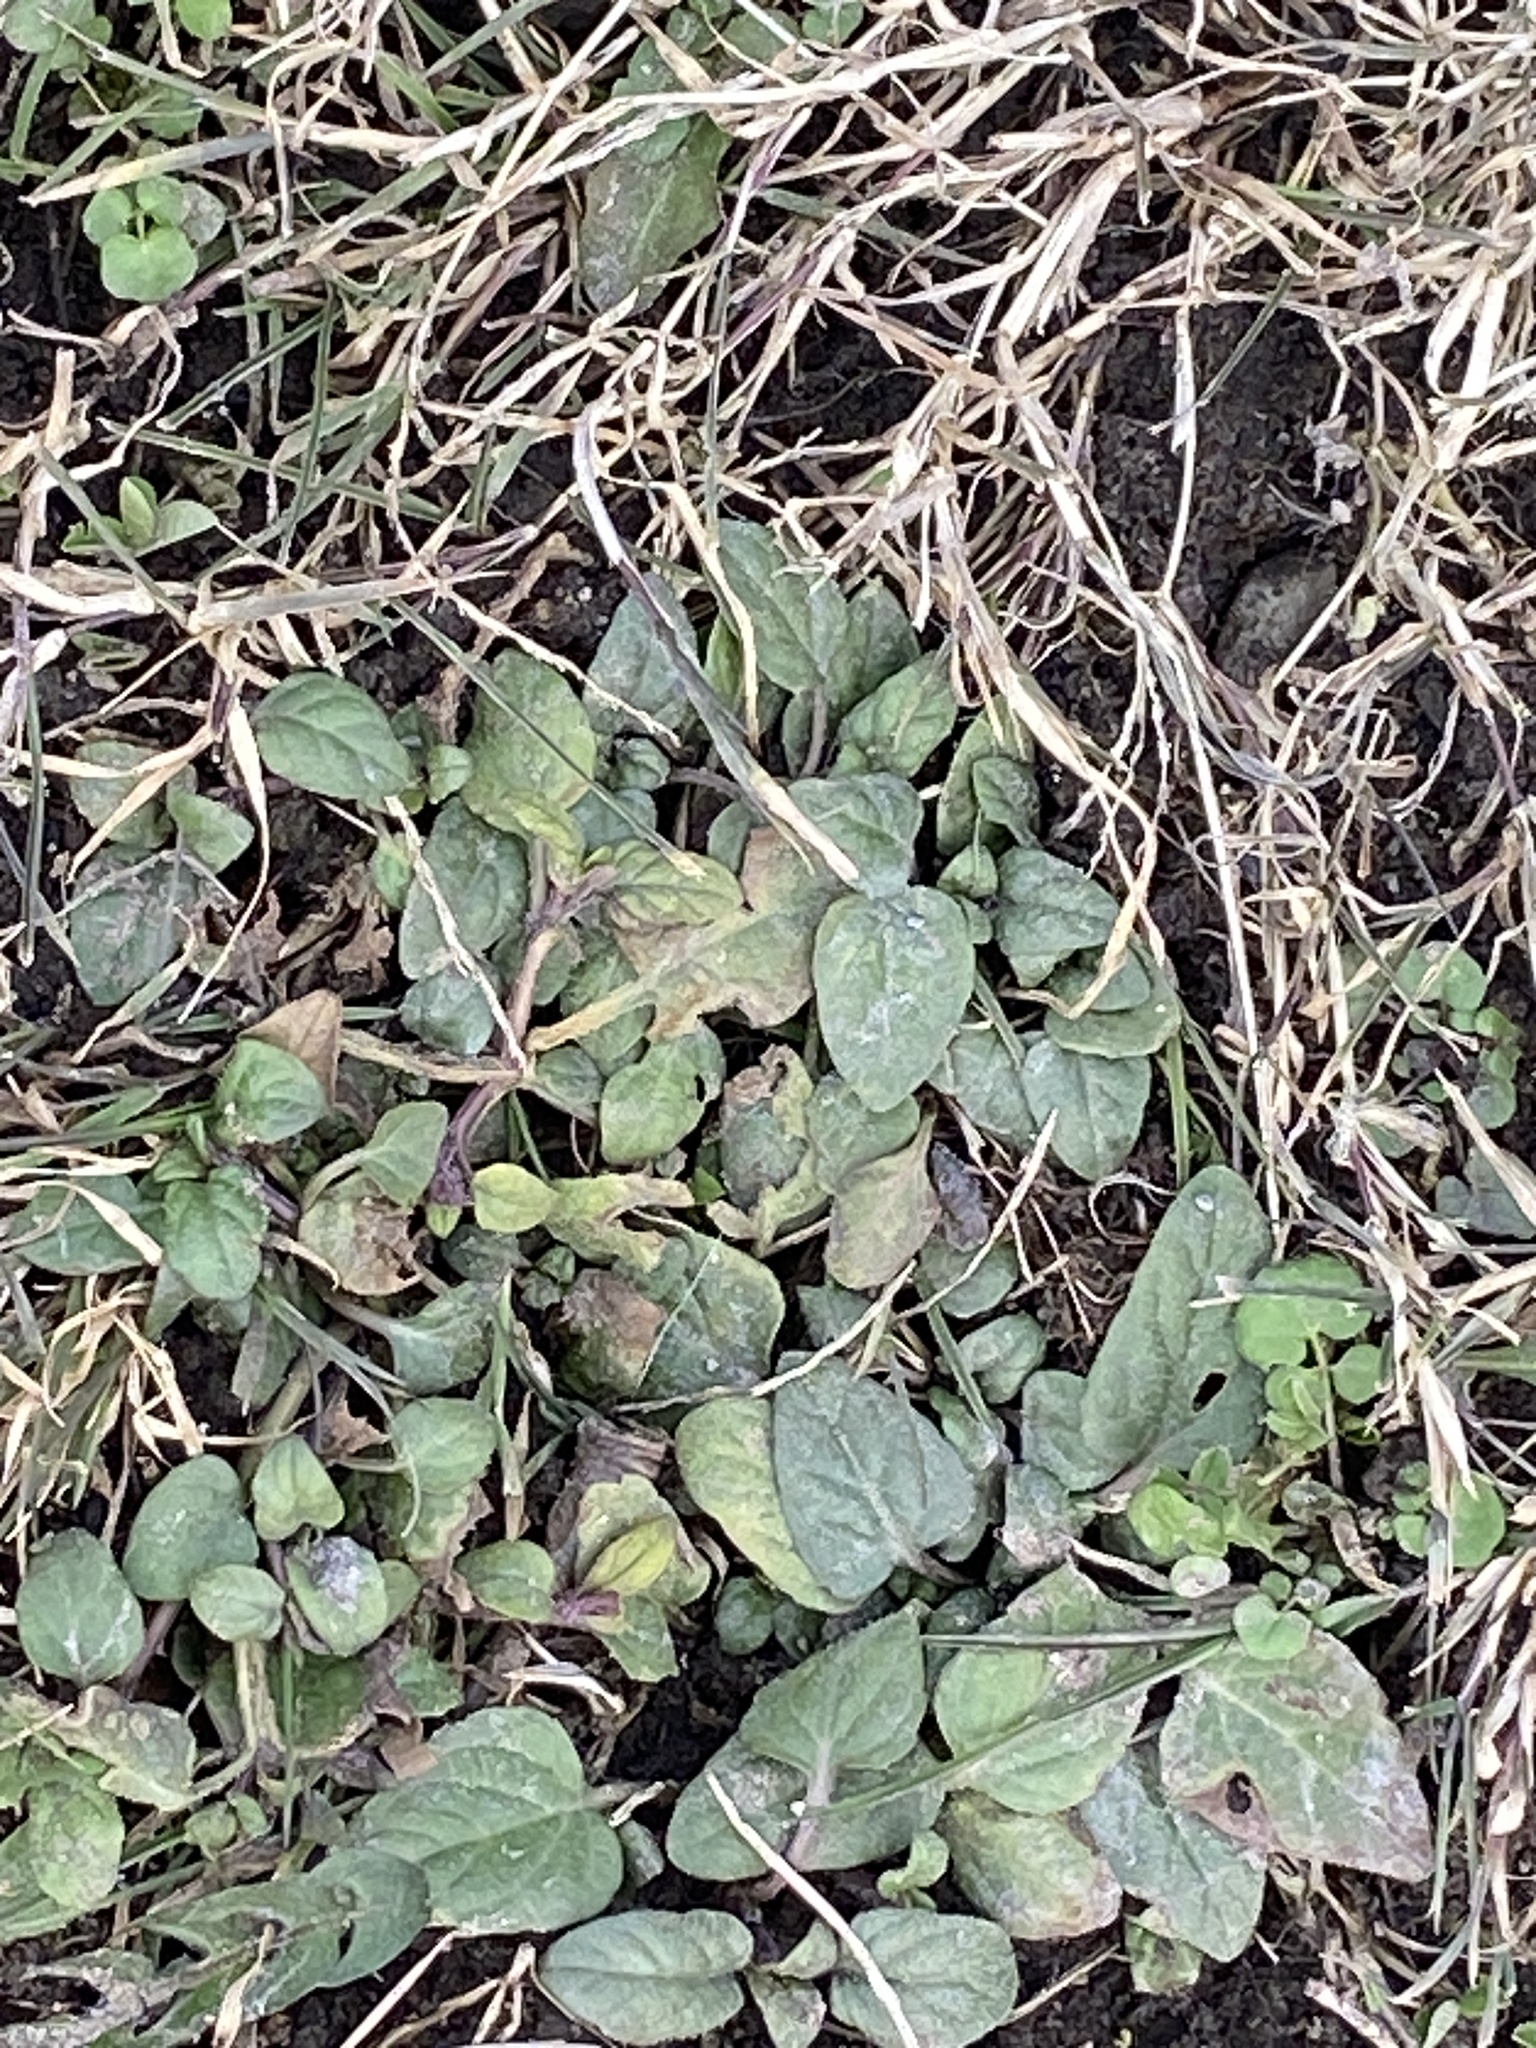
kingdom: Plantae
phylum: Tracheophyta
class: Magnoliopsida
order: Lamiales
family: Lamiaceae
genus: Prunella
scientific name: Prunella vulgaris
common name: Heal-all
